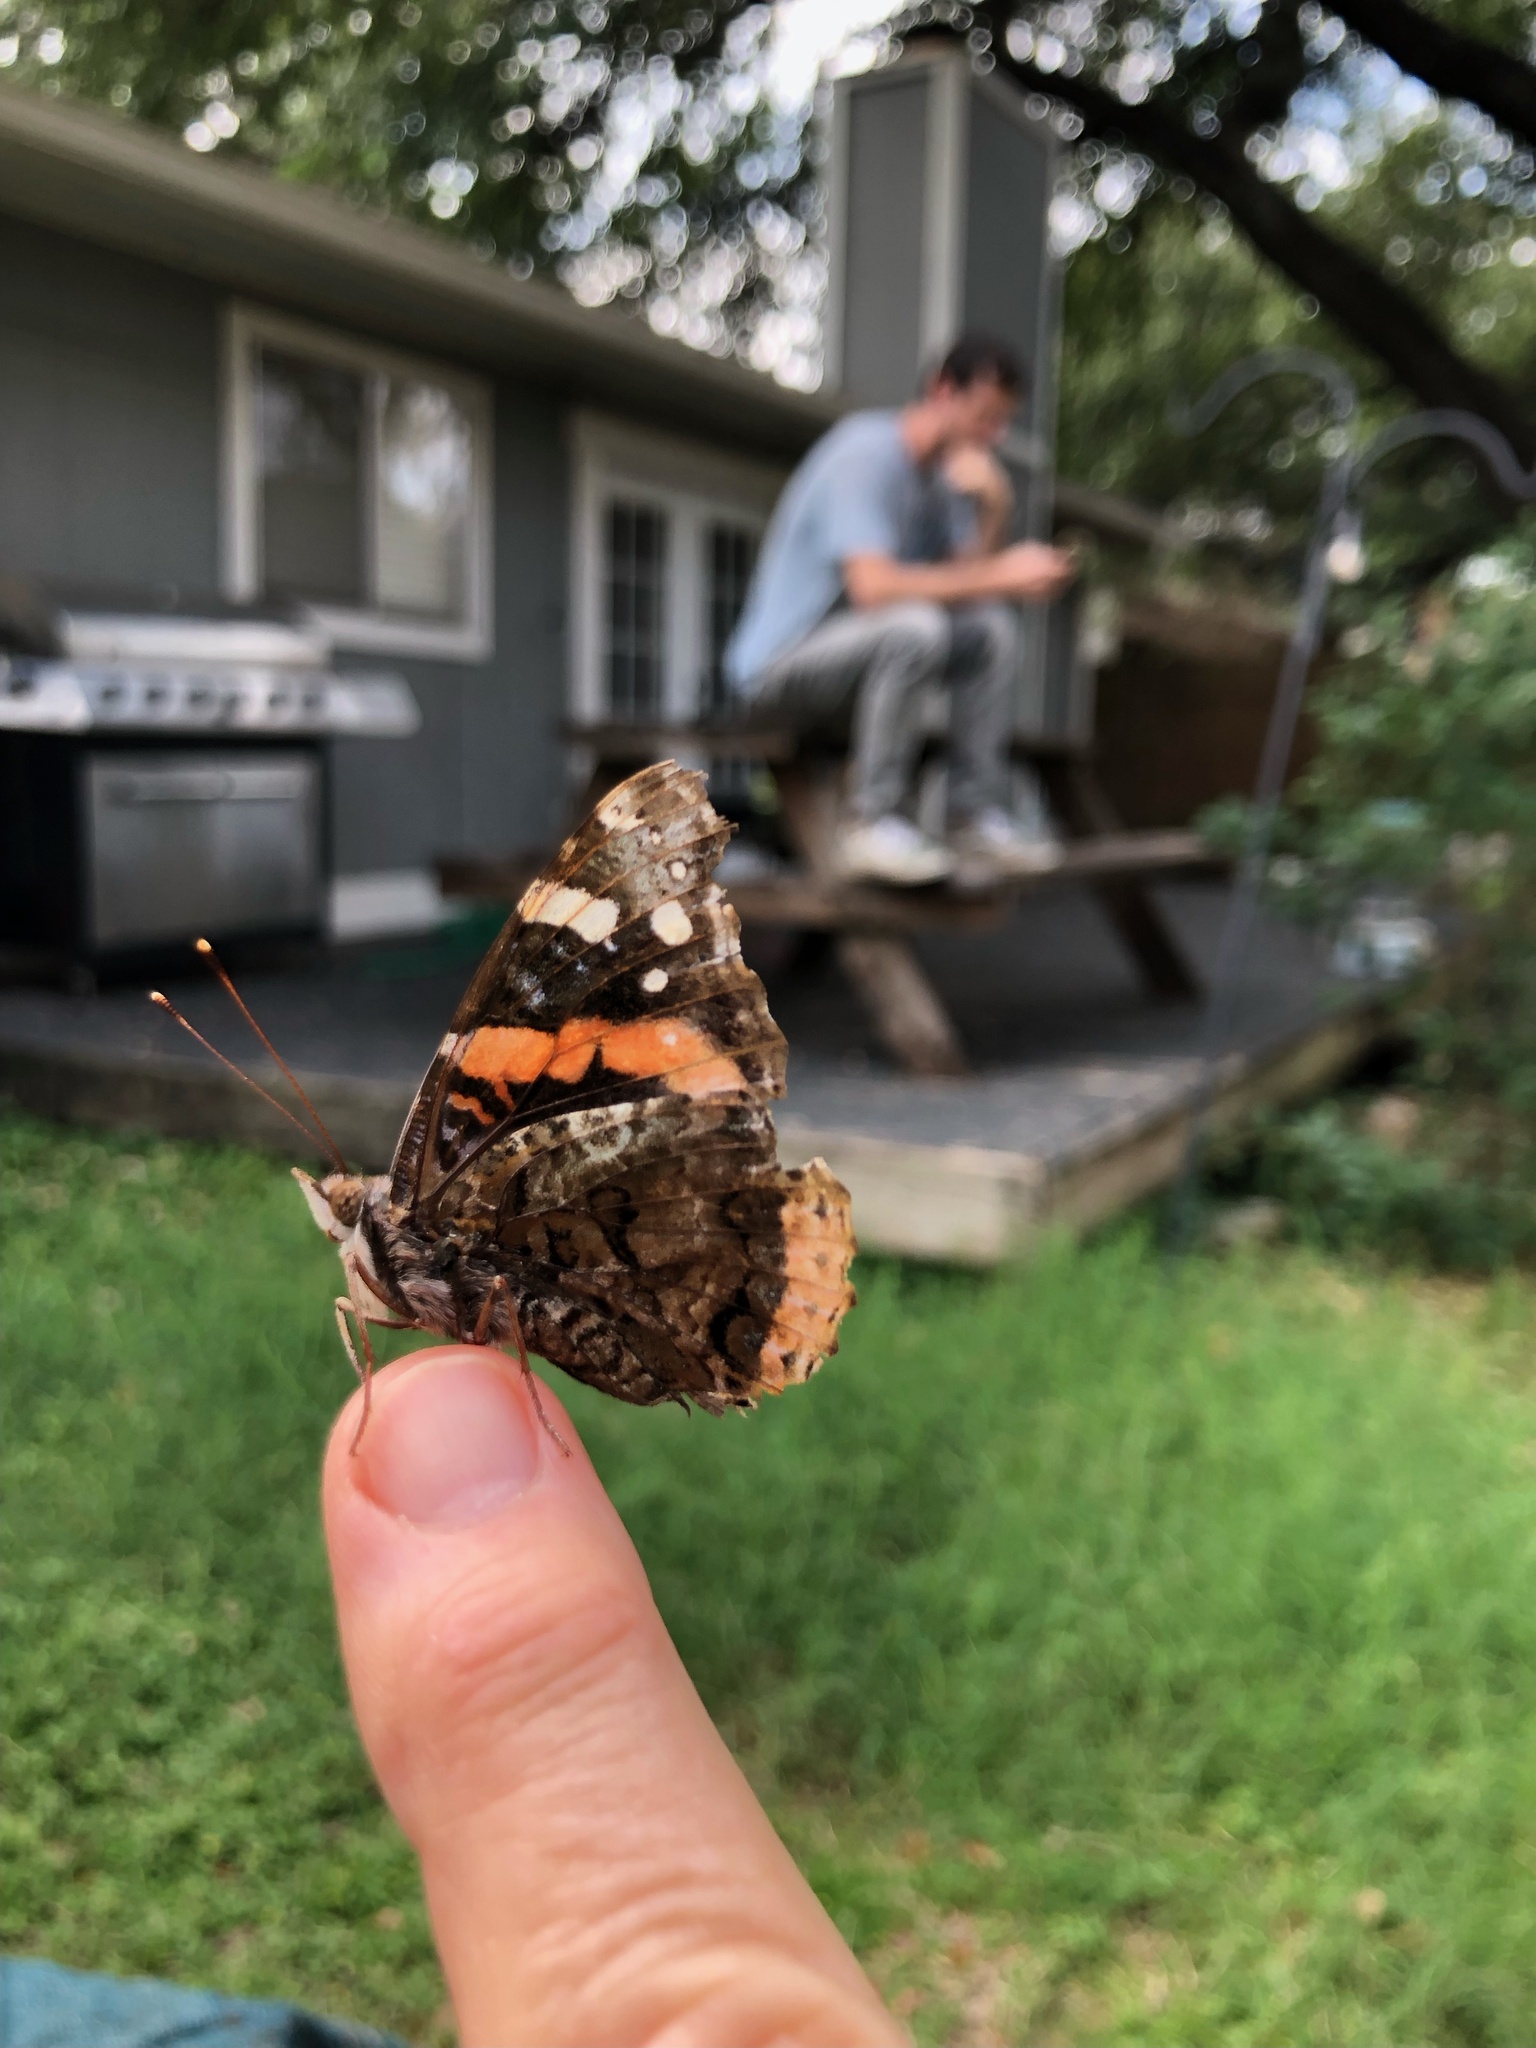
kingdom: Animalia
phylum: Arthropoda
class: Insecta
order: Lepidoptera
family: Nymphalidae
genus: Vanessa
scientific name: Vanessa atalanta
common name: Red admiral
